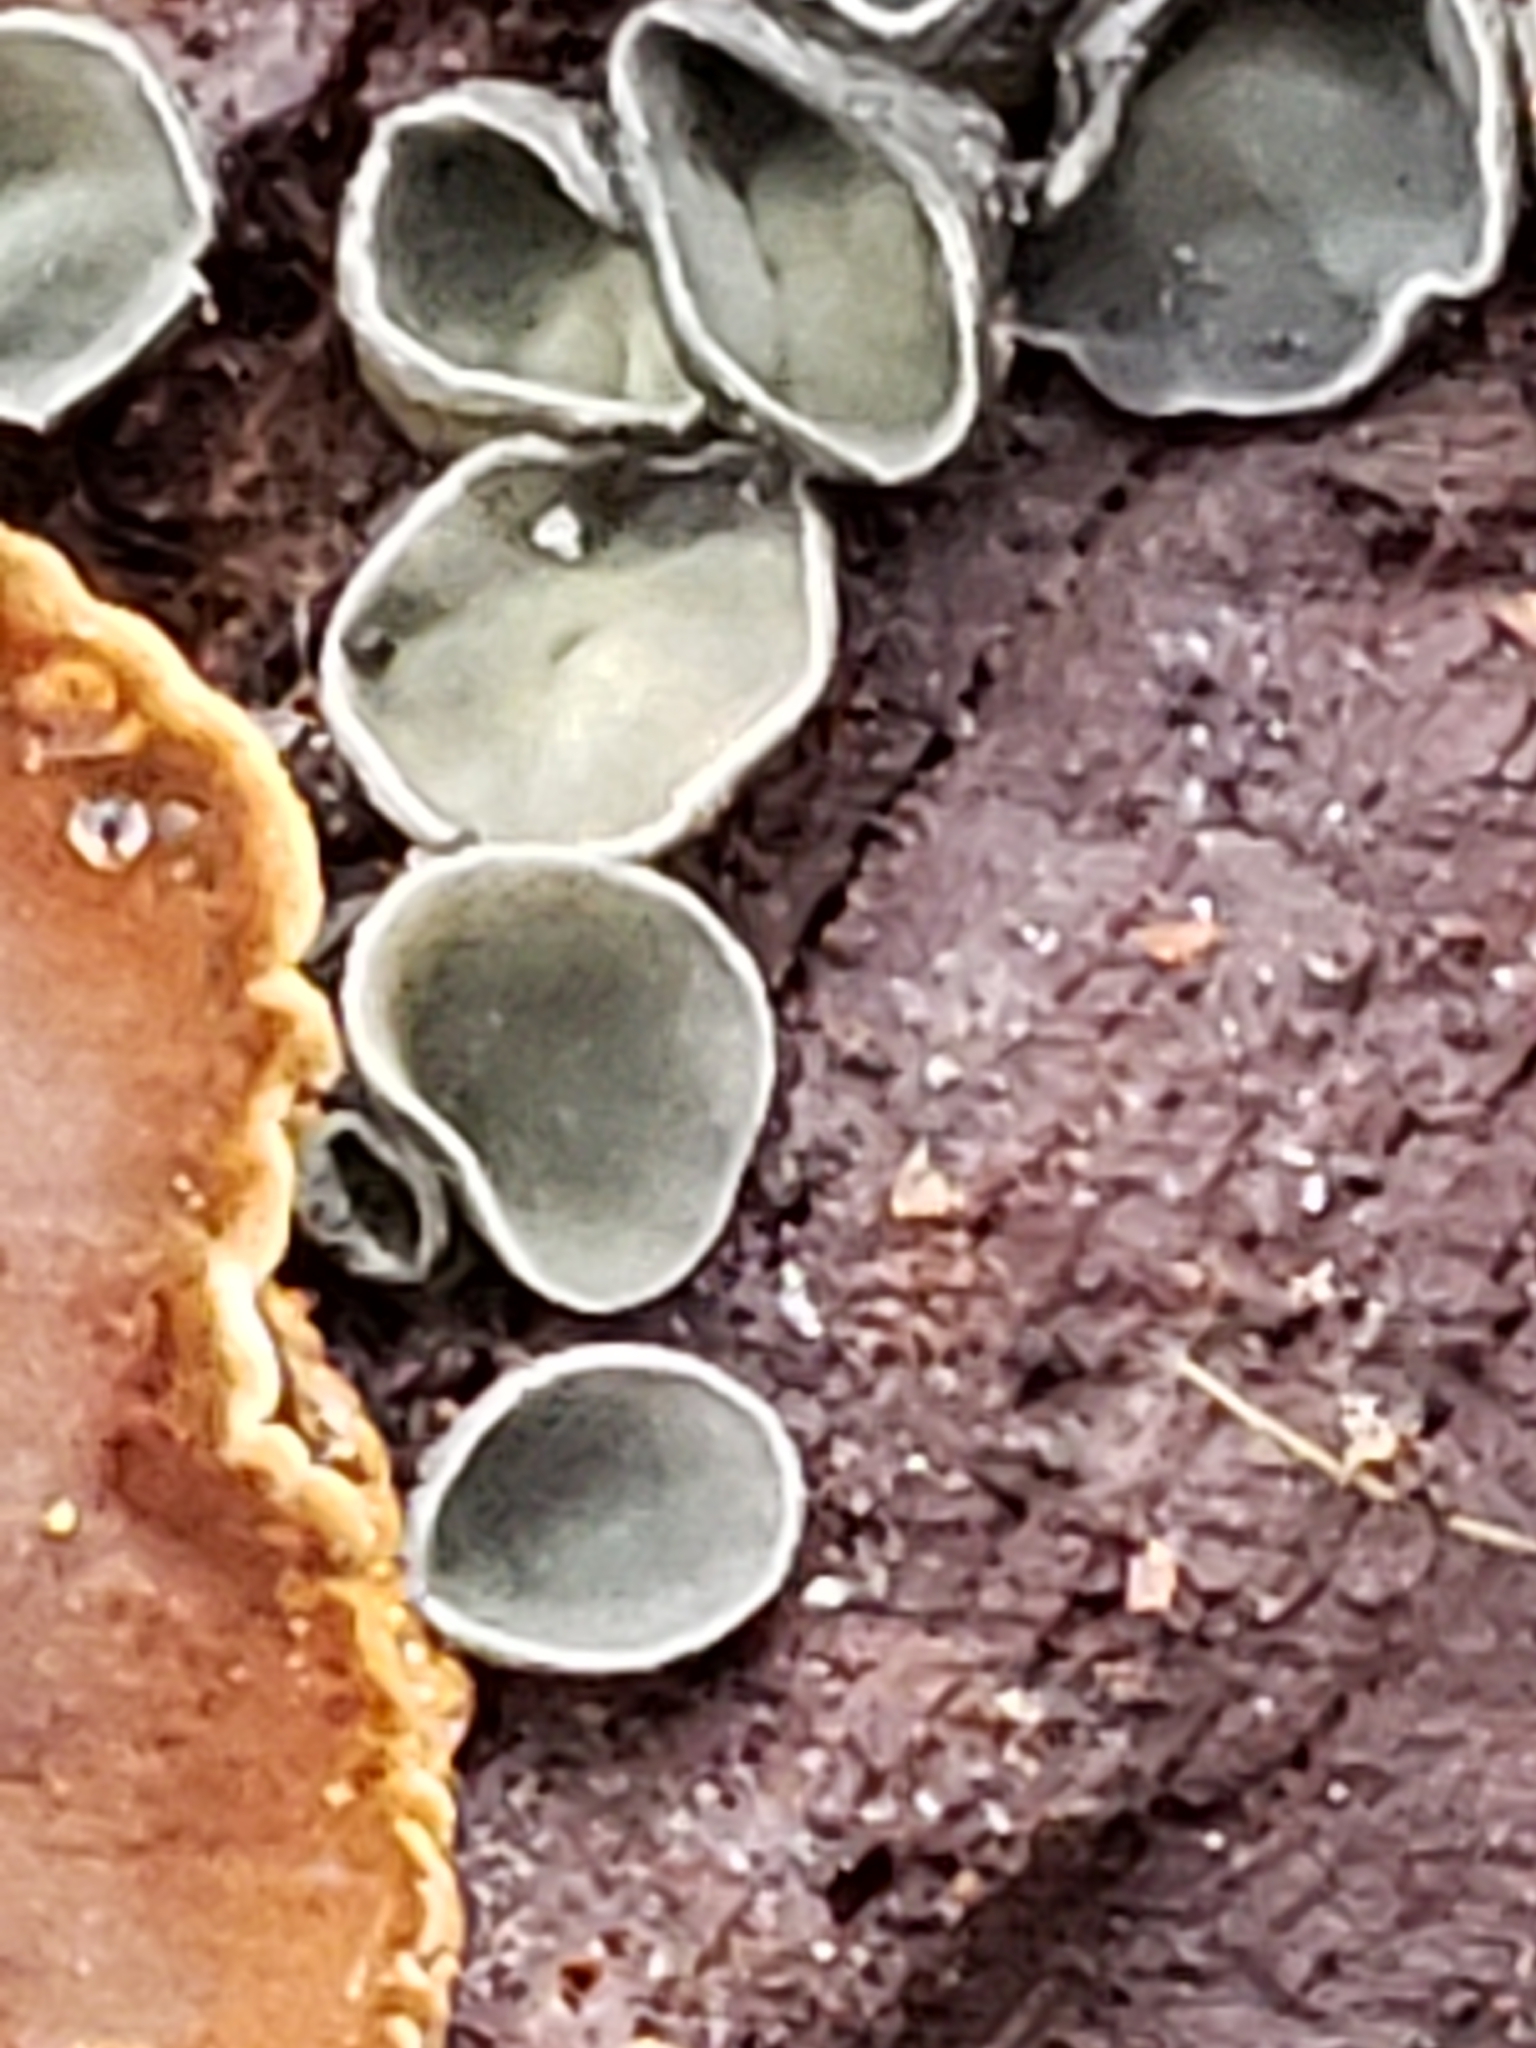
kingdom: Fungi
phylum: Ascomycota
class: Leotiomycetes
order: Helotiales
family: Chlorospleniaceae
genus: Chlorosplenium
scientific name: Chlorosplenium chlora
